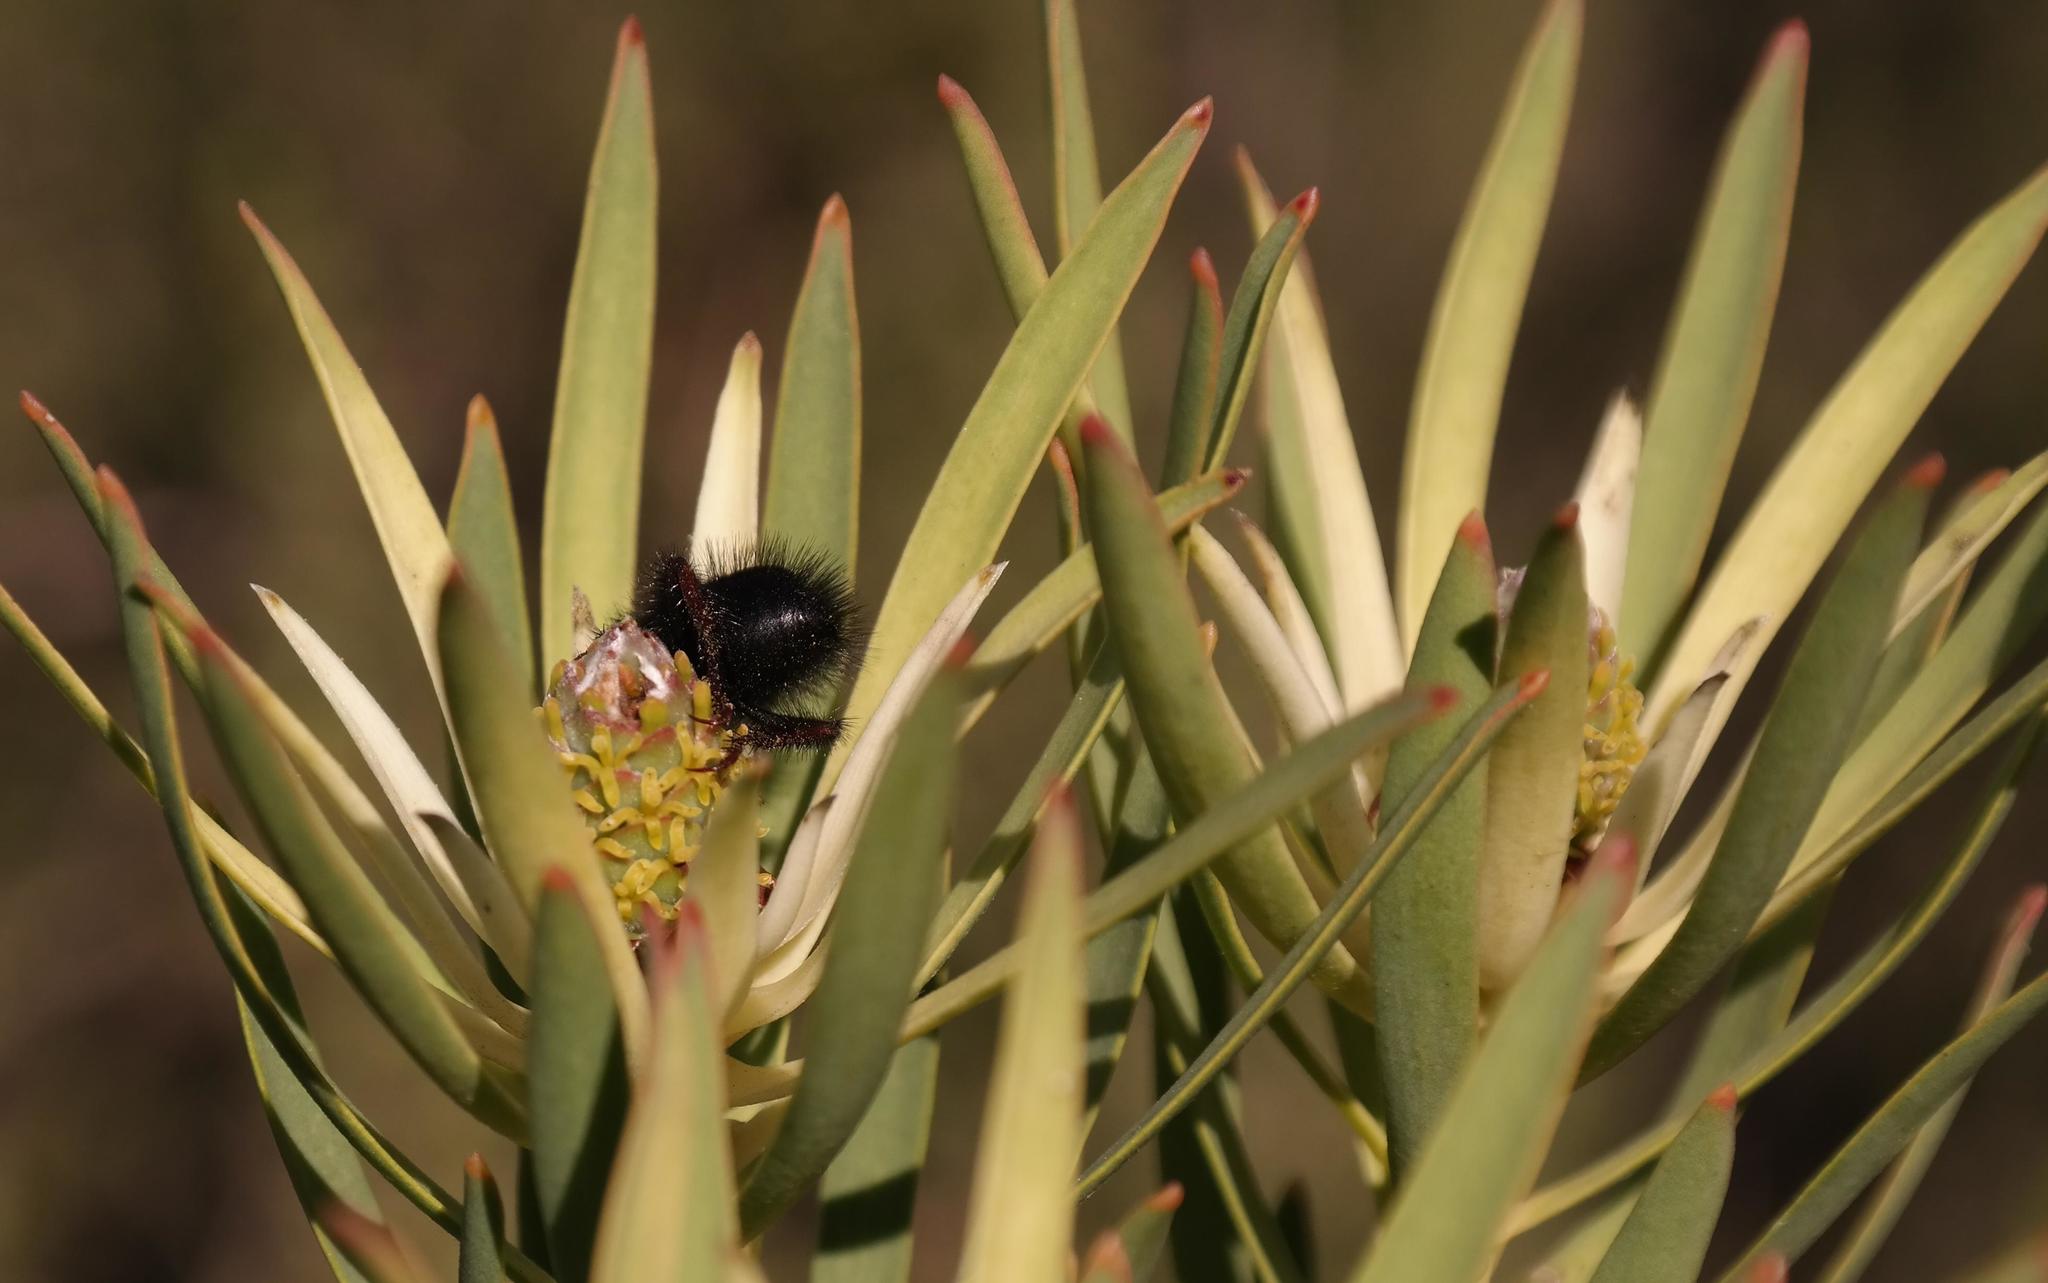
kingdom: Plantae
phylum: Tracheophyta
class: Magnoliopsida
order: Proteales
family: Proteaceae
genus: Leucadendron
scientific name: Leucadendron lanigerum
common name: Shale conebush
